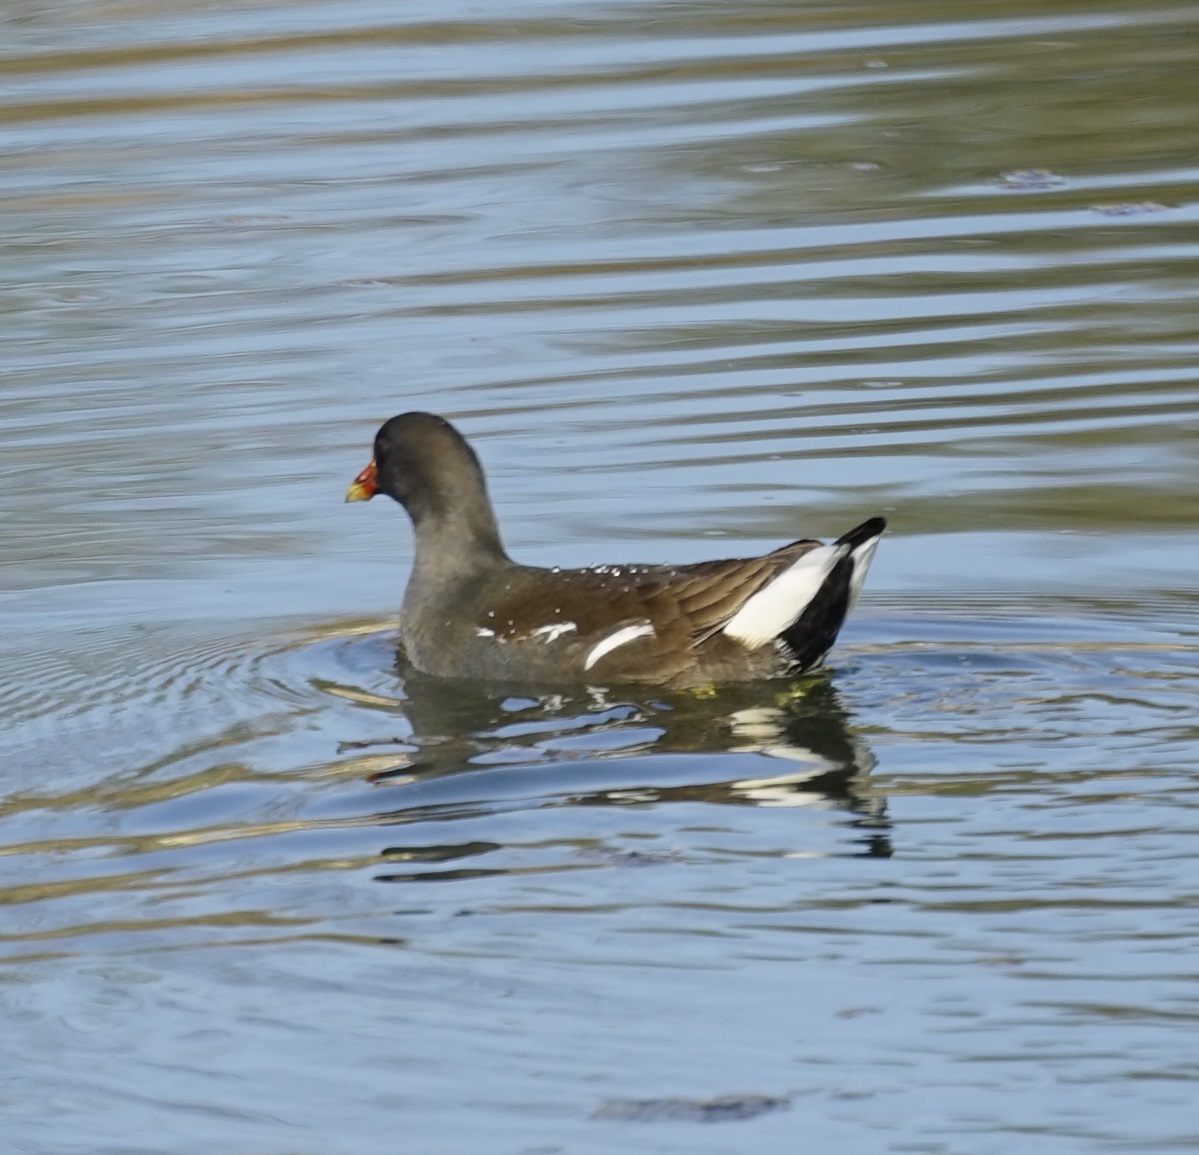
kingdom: Animalia
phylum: Chordata
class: Aves
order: Gruiformes
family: Rallidae
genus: Gallinula
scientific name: Gallinula chloropus
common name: Common moorhen
